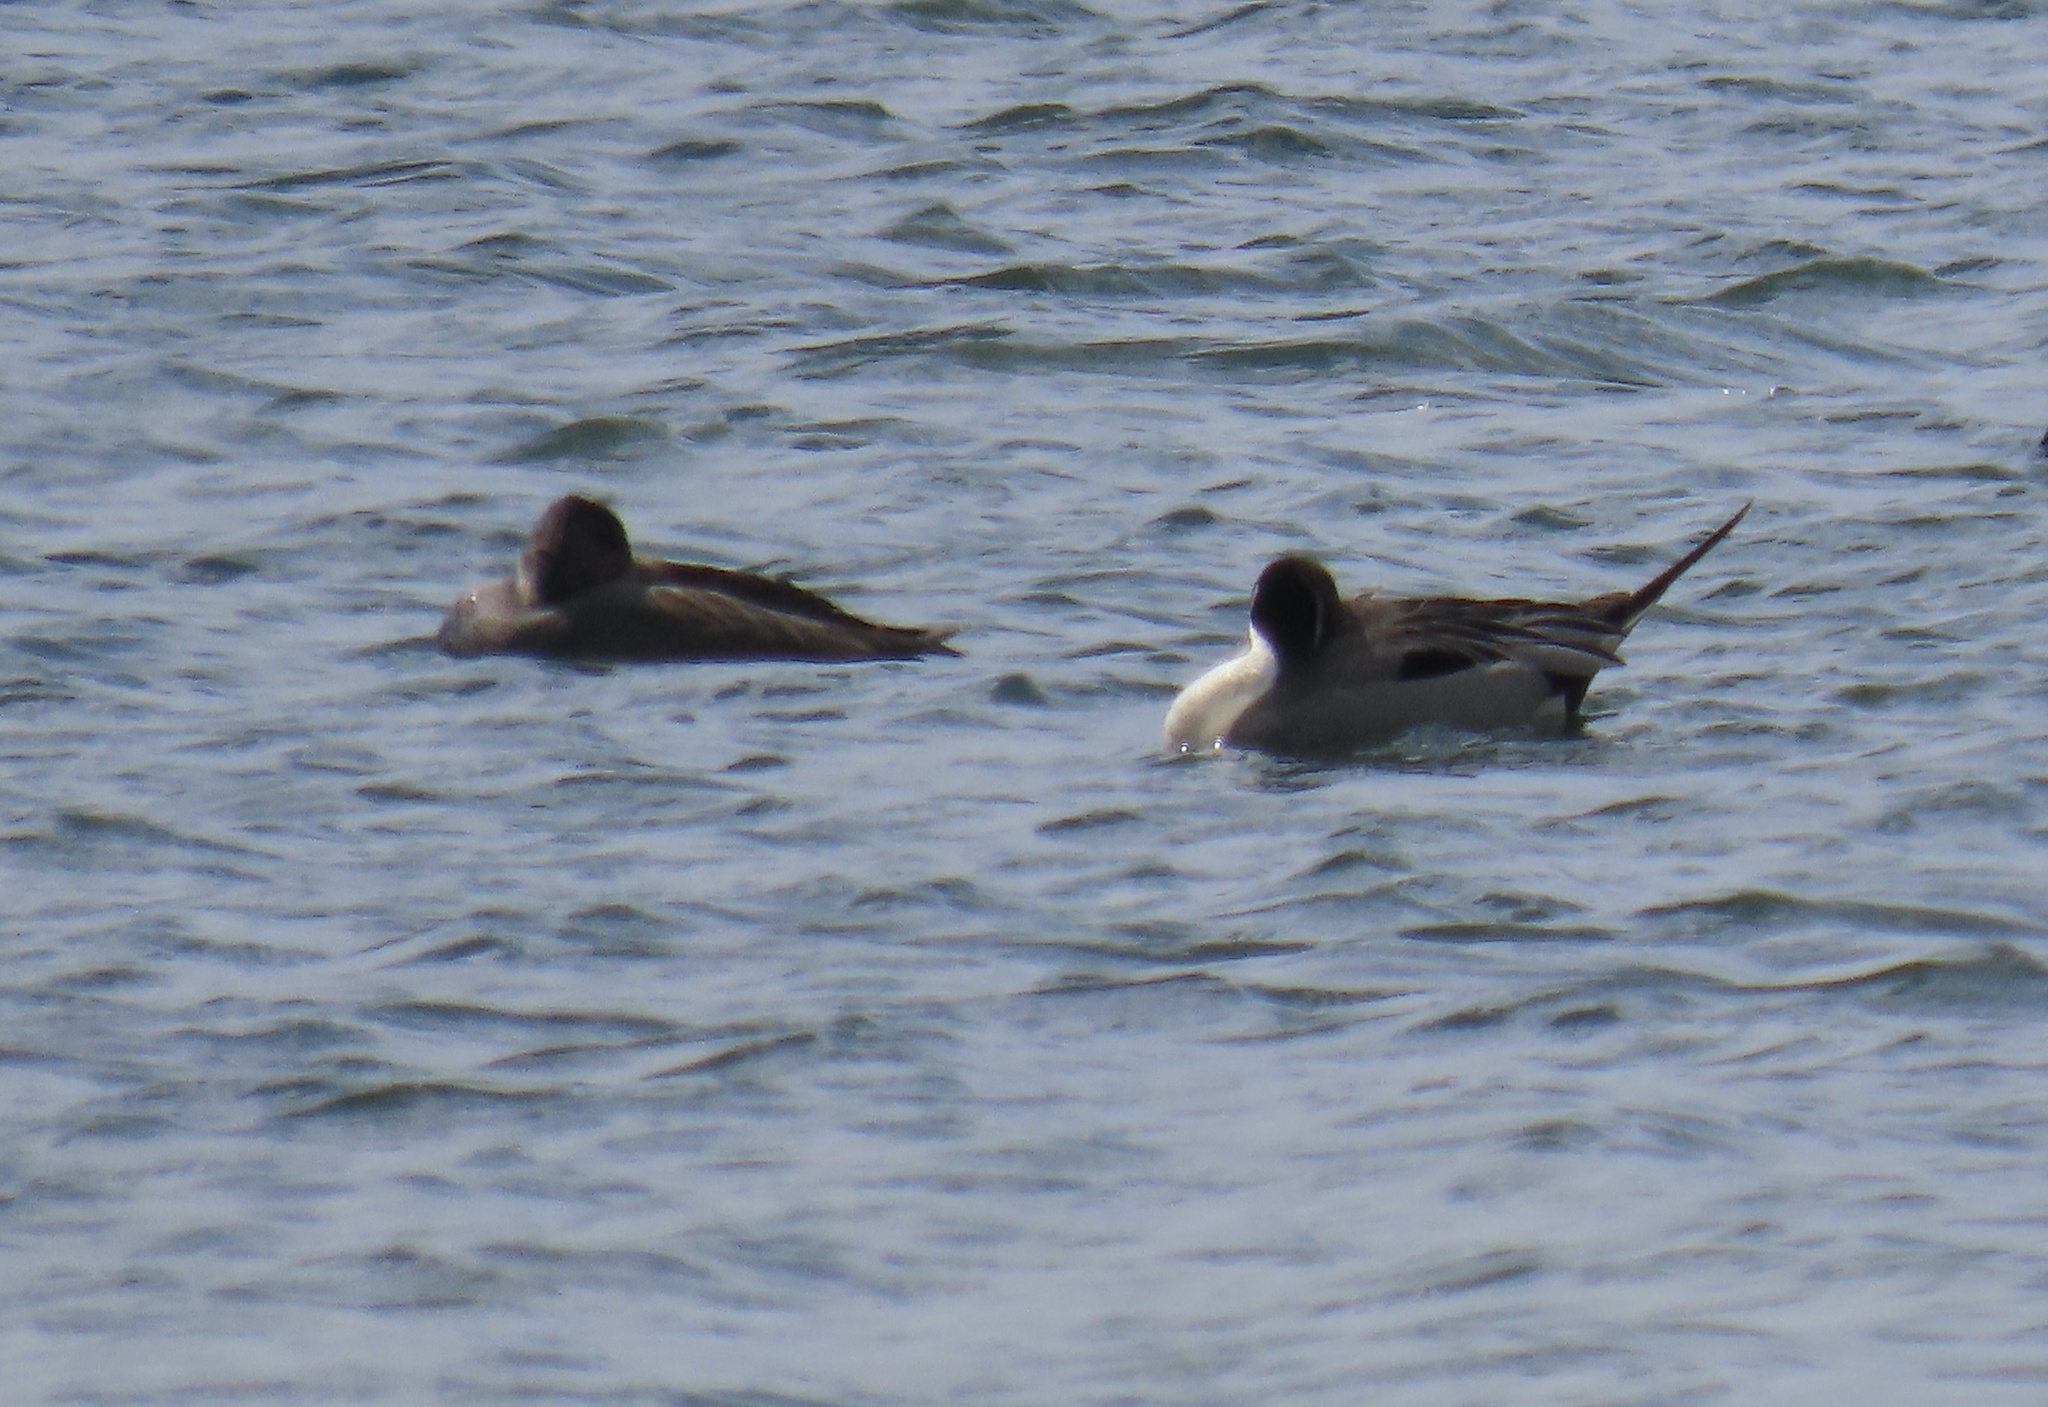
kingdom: Animalia
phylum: Chordata
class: Aves
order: Anseriformes
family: Anatidae
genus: Anas
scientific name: Anas acuta
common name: Northern pintail
